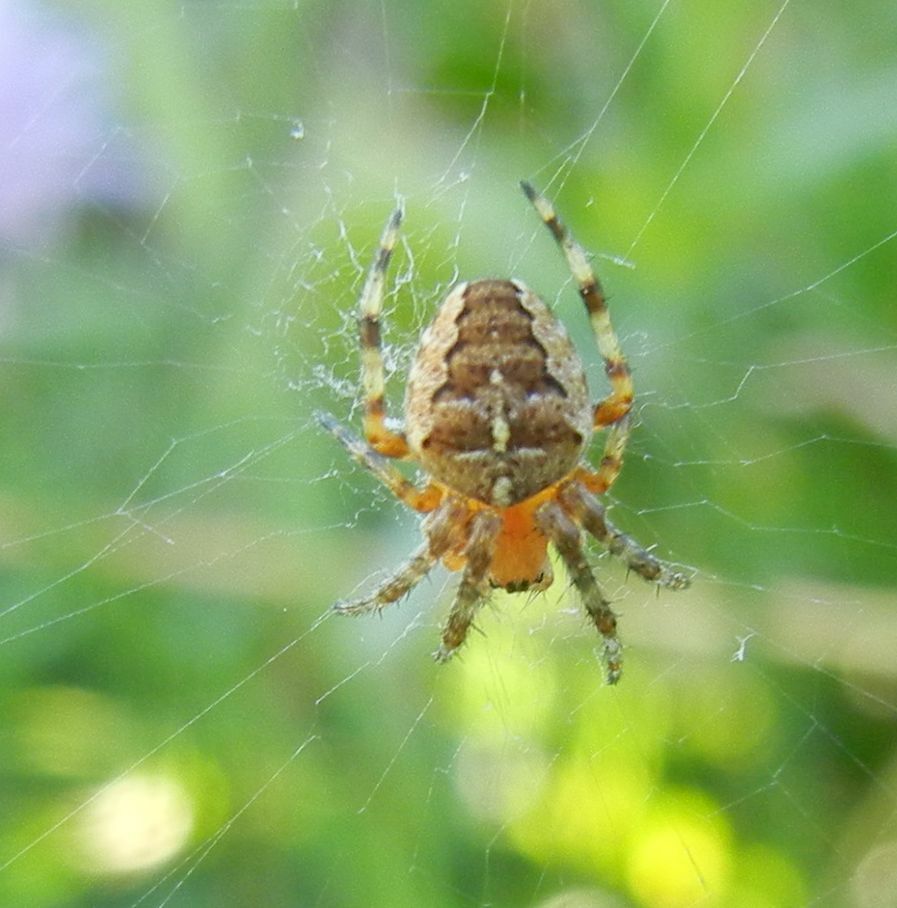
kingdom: Animalia
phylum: Arthropoda
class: Arachnida
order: Araneae
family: Araneidae
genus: Araneus
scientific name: Araneus diadematus
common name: Cross orbweaver
